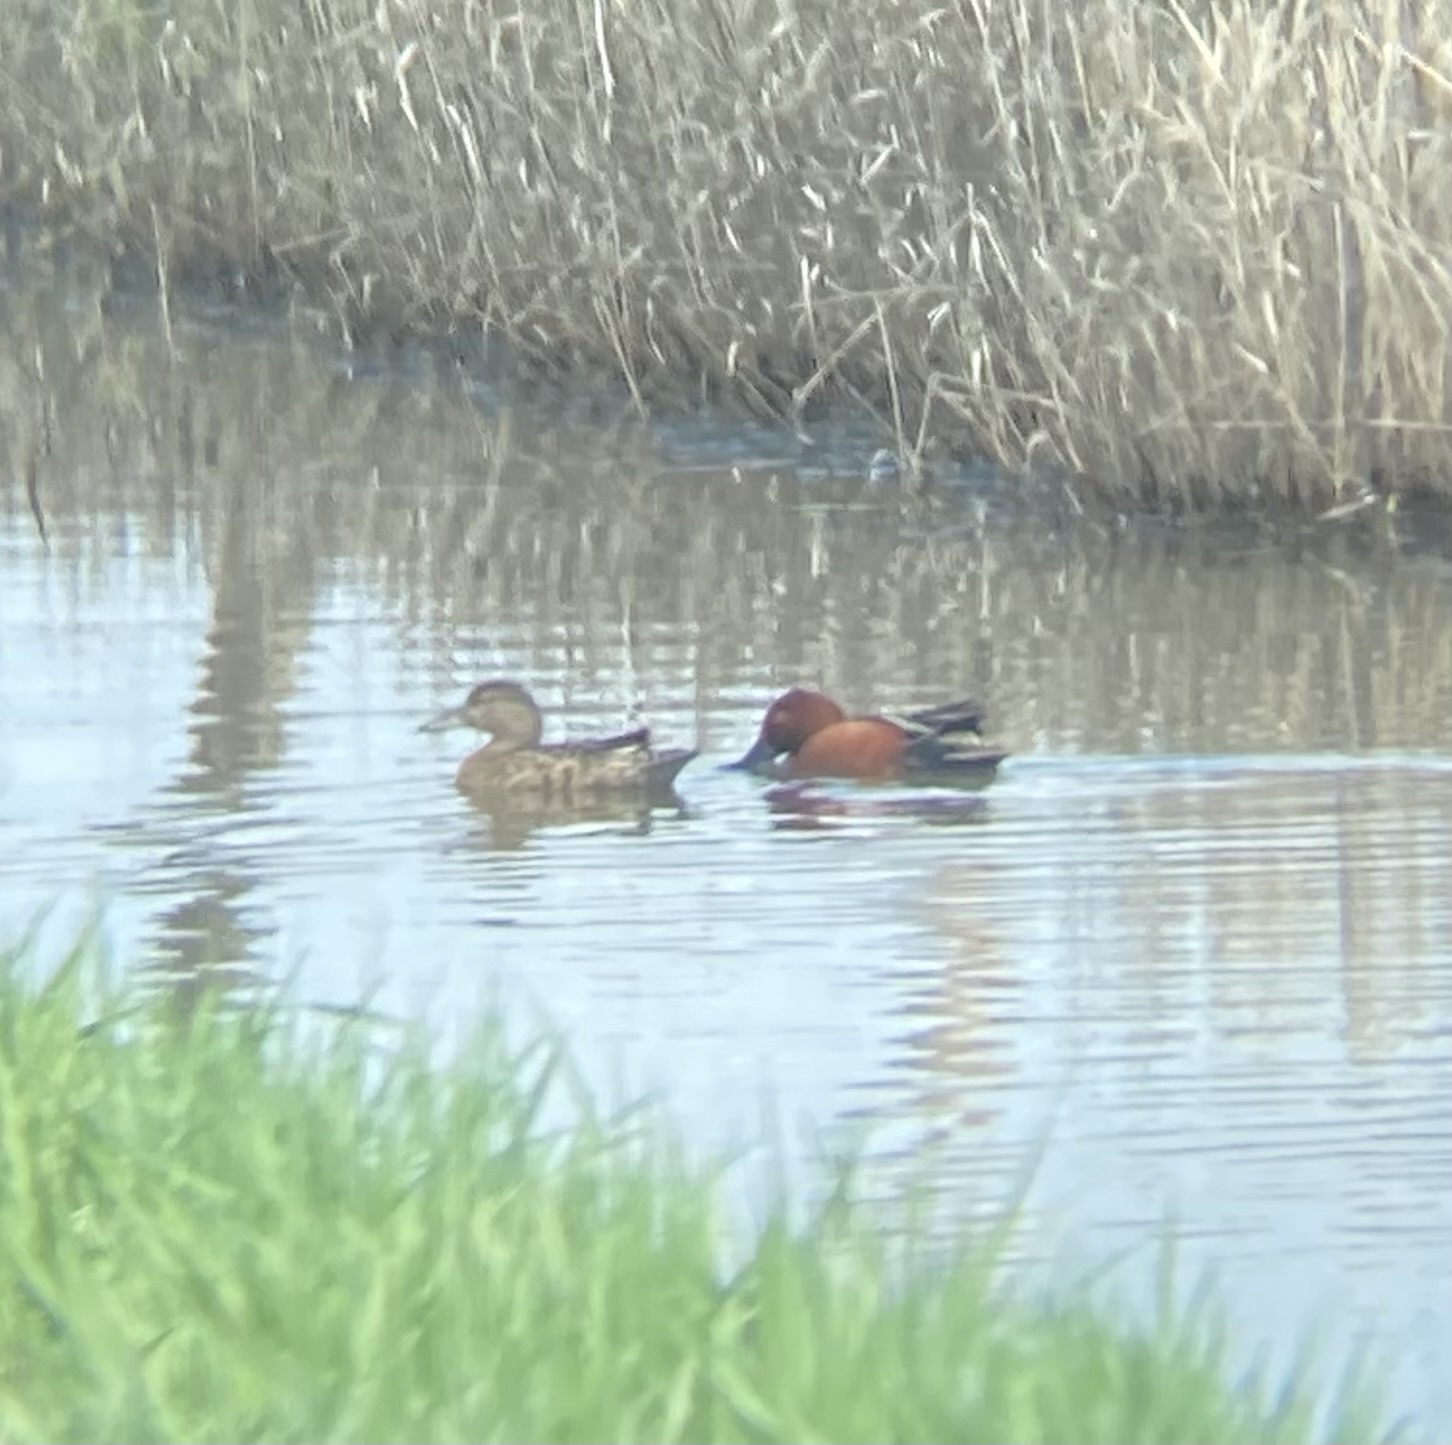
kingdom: Animalia
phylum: Chordata
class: Aves
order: Anseriformes
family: Anatidae
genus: Spatula
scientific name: Spatula cyanoptera
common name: Cinnamon teal
